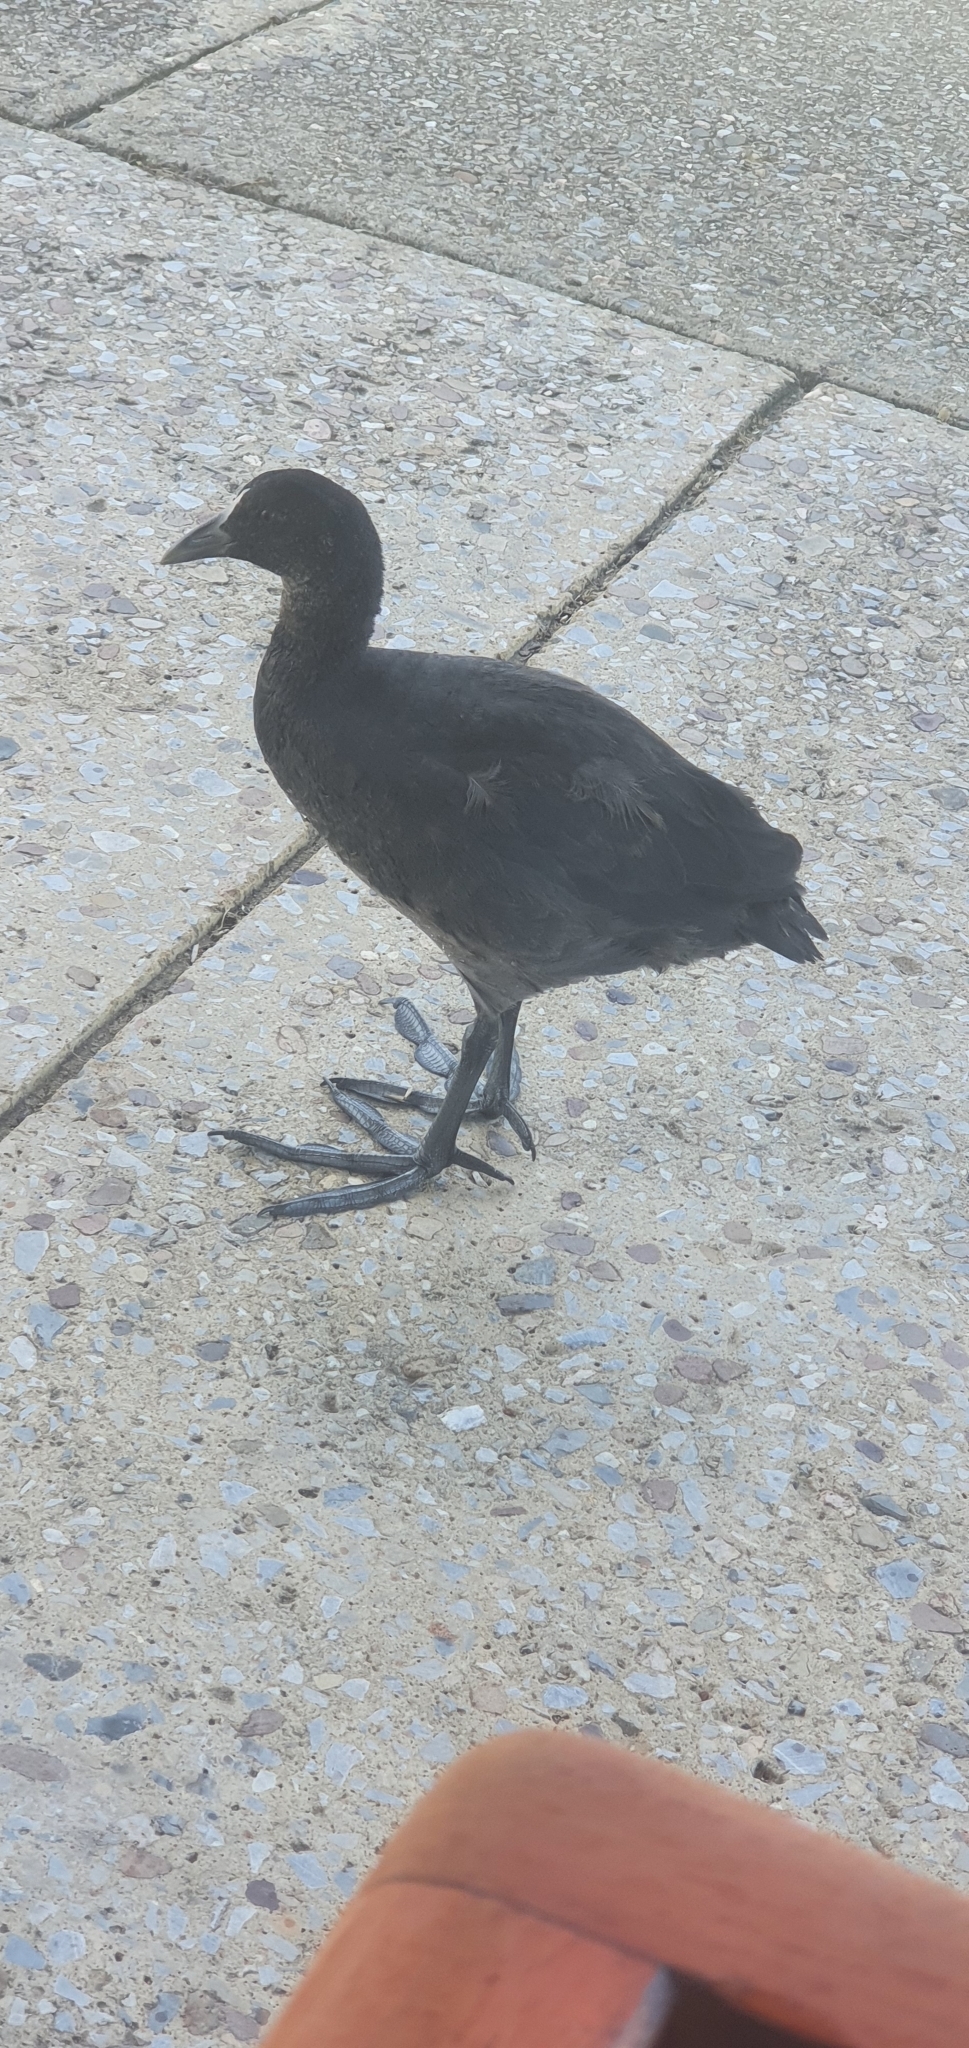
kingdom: Animalia
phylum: Chordata
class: Aves
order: Gruiformes
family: Rallidae
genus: Fulica
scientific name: Fulica atra
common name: Eurasian coot
